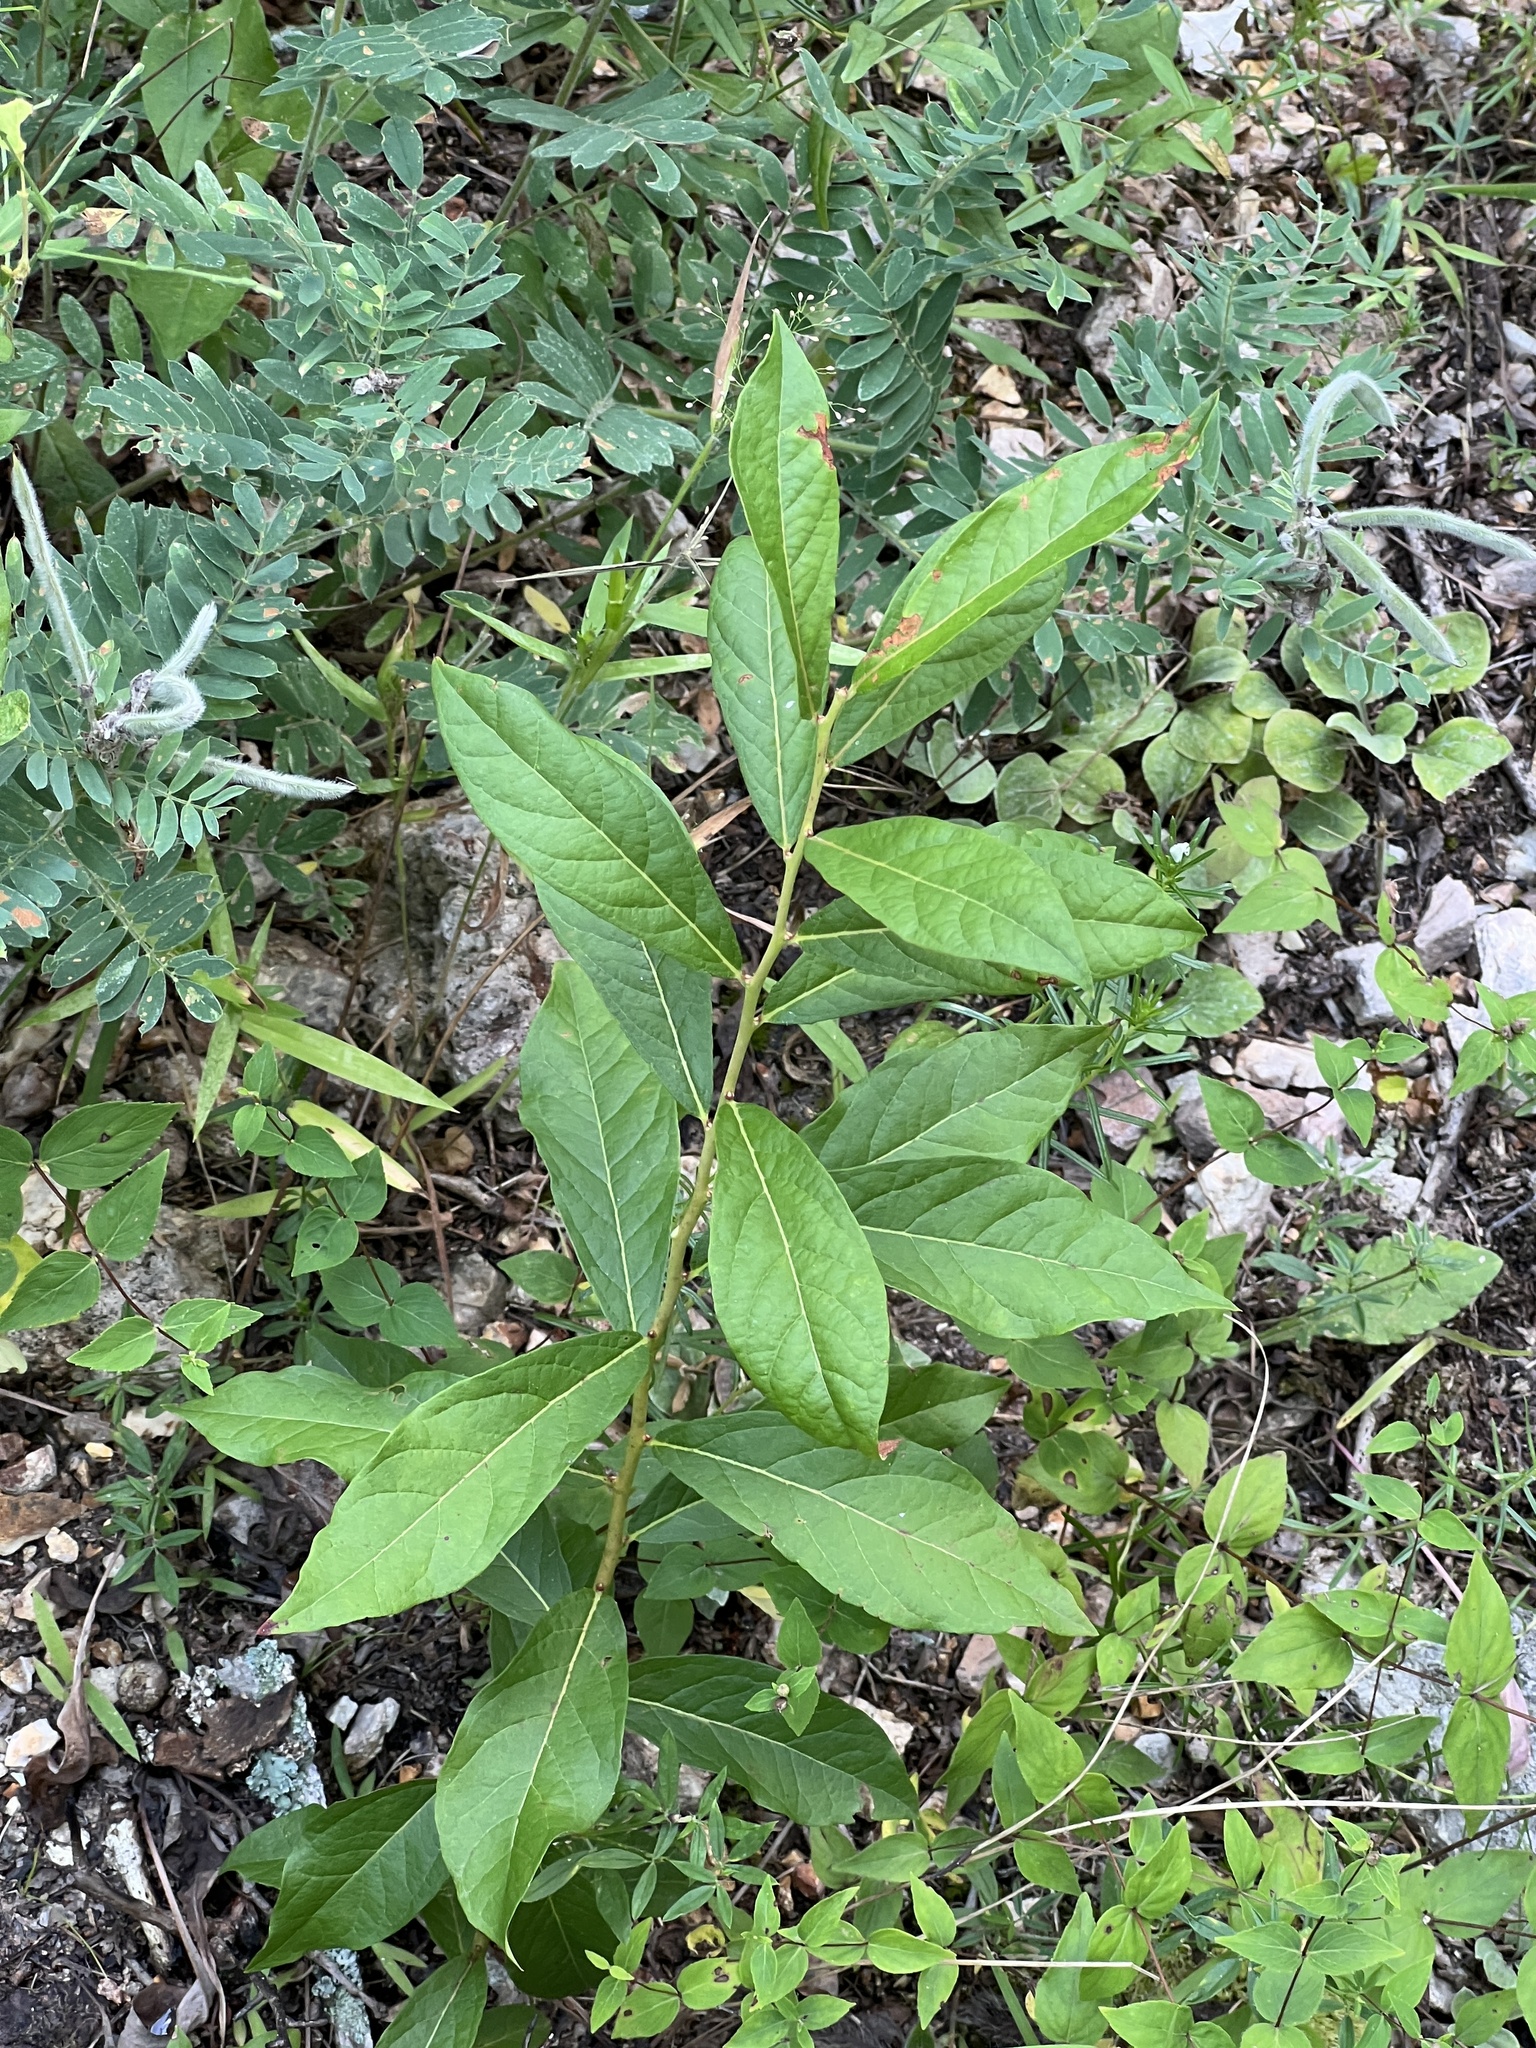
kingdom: Plantae
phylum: Tracheophyta
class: Magnoliopsida
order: Ericales
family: Ericaceae
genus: Vaccinium
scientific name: Vaccinium stamineum
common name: Deerberry
